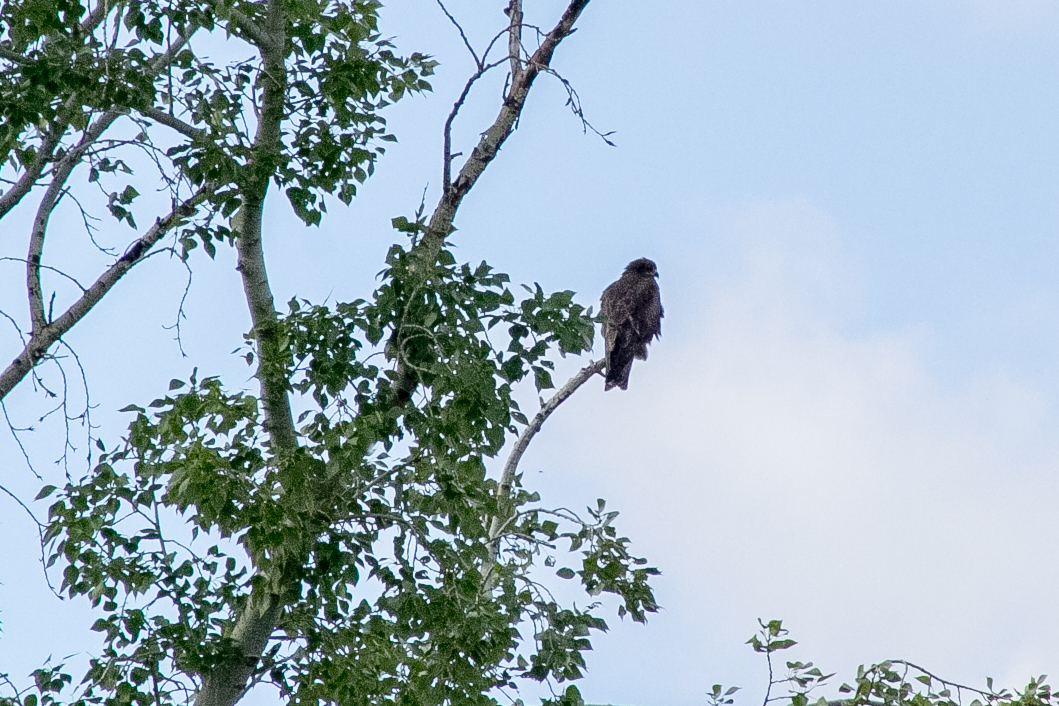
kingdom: Animalia
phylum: Chordata
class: Aves
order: Accipitriformes
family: Accipitridae
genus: Milvus
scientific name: Milvus migrans
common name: Black kite
